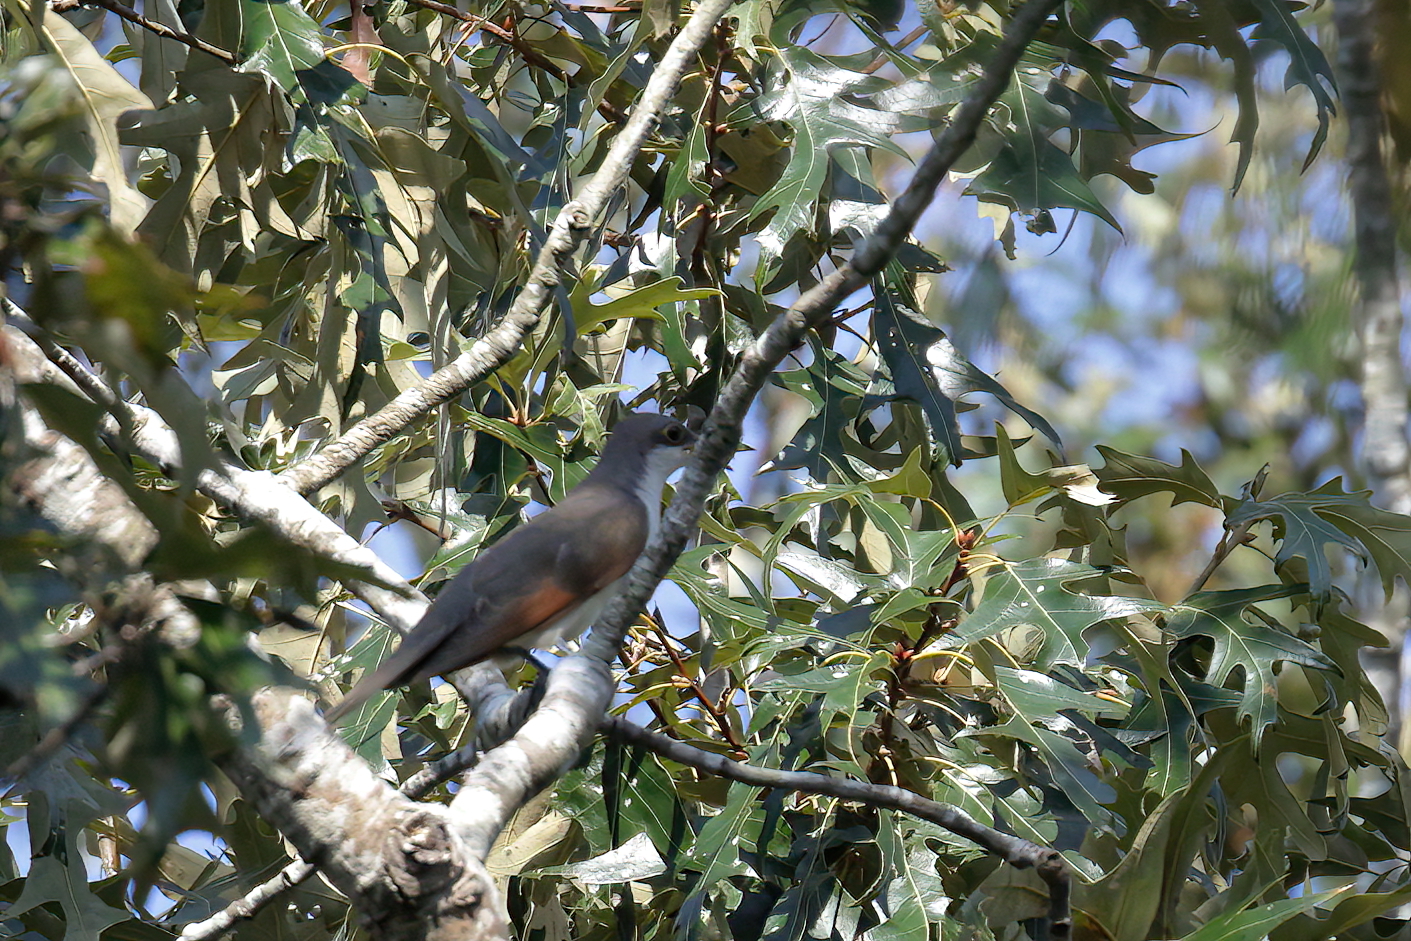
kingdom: Animalia
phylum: Chordata
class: Aves
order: Cuculiformes
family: Cuculidae
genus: Coccyzus
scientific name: Coccyzus americanus
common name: Yellow-billed cuckoo
